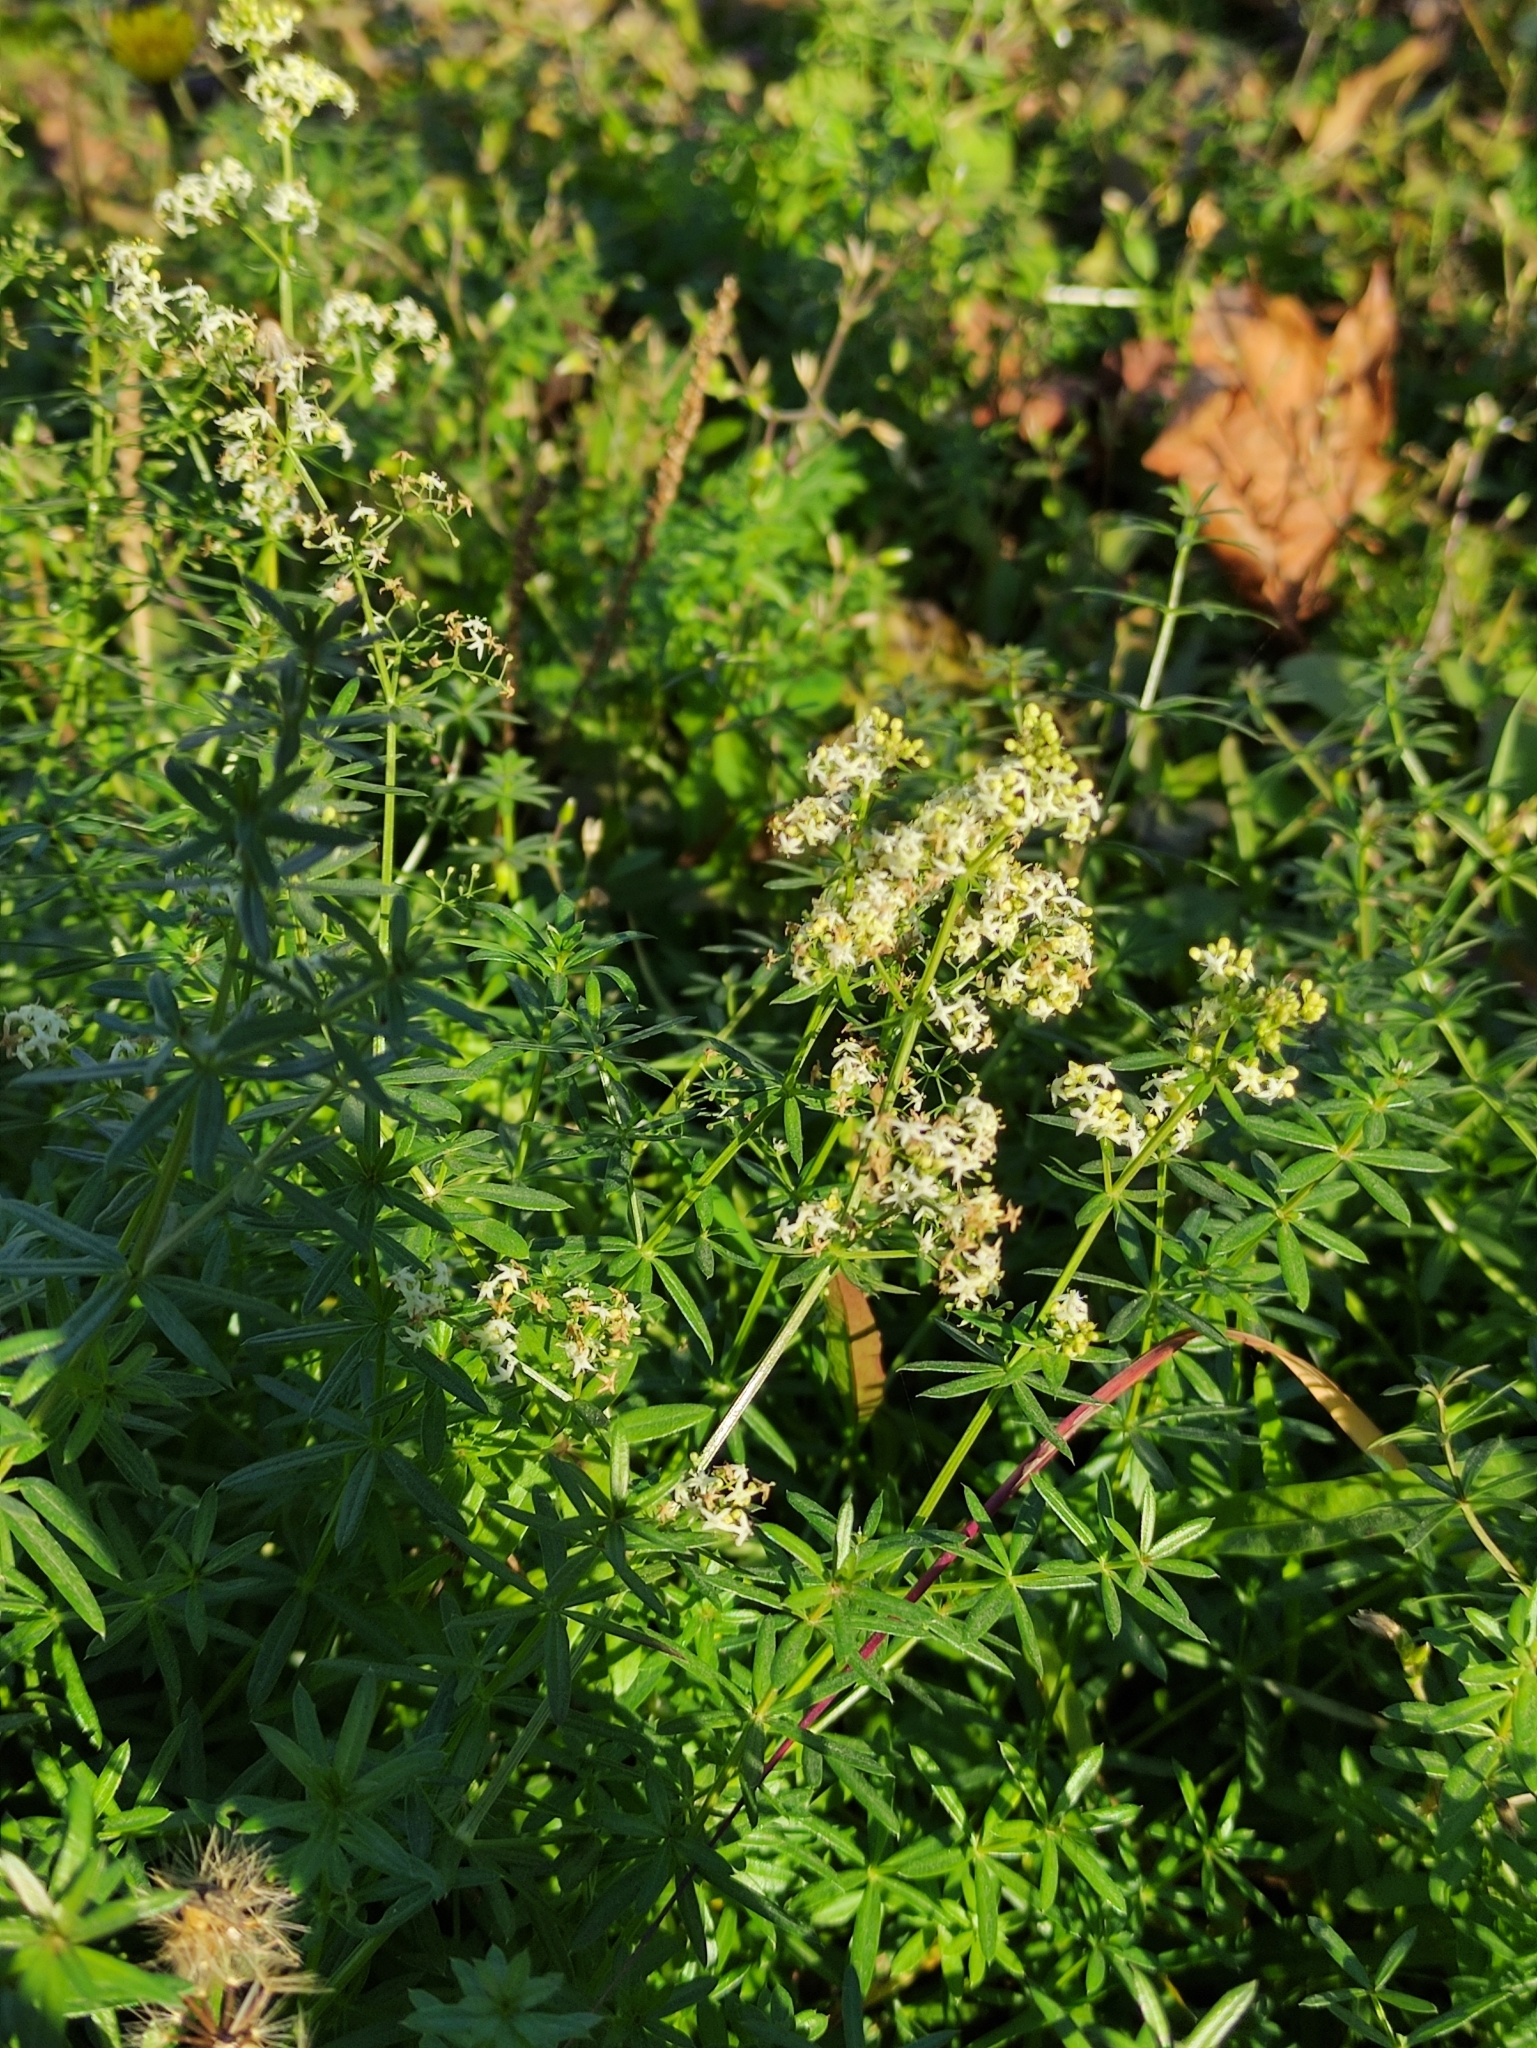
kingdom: Plantae
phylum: Tracheophyta
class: Magnoliopsida
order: Gentianales
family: Rubiaceae
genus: Galium
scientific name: Galium mollugo
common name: Hedge bedstraw
